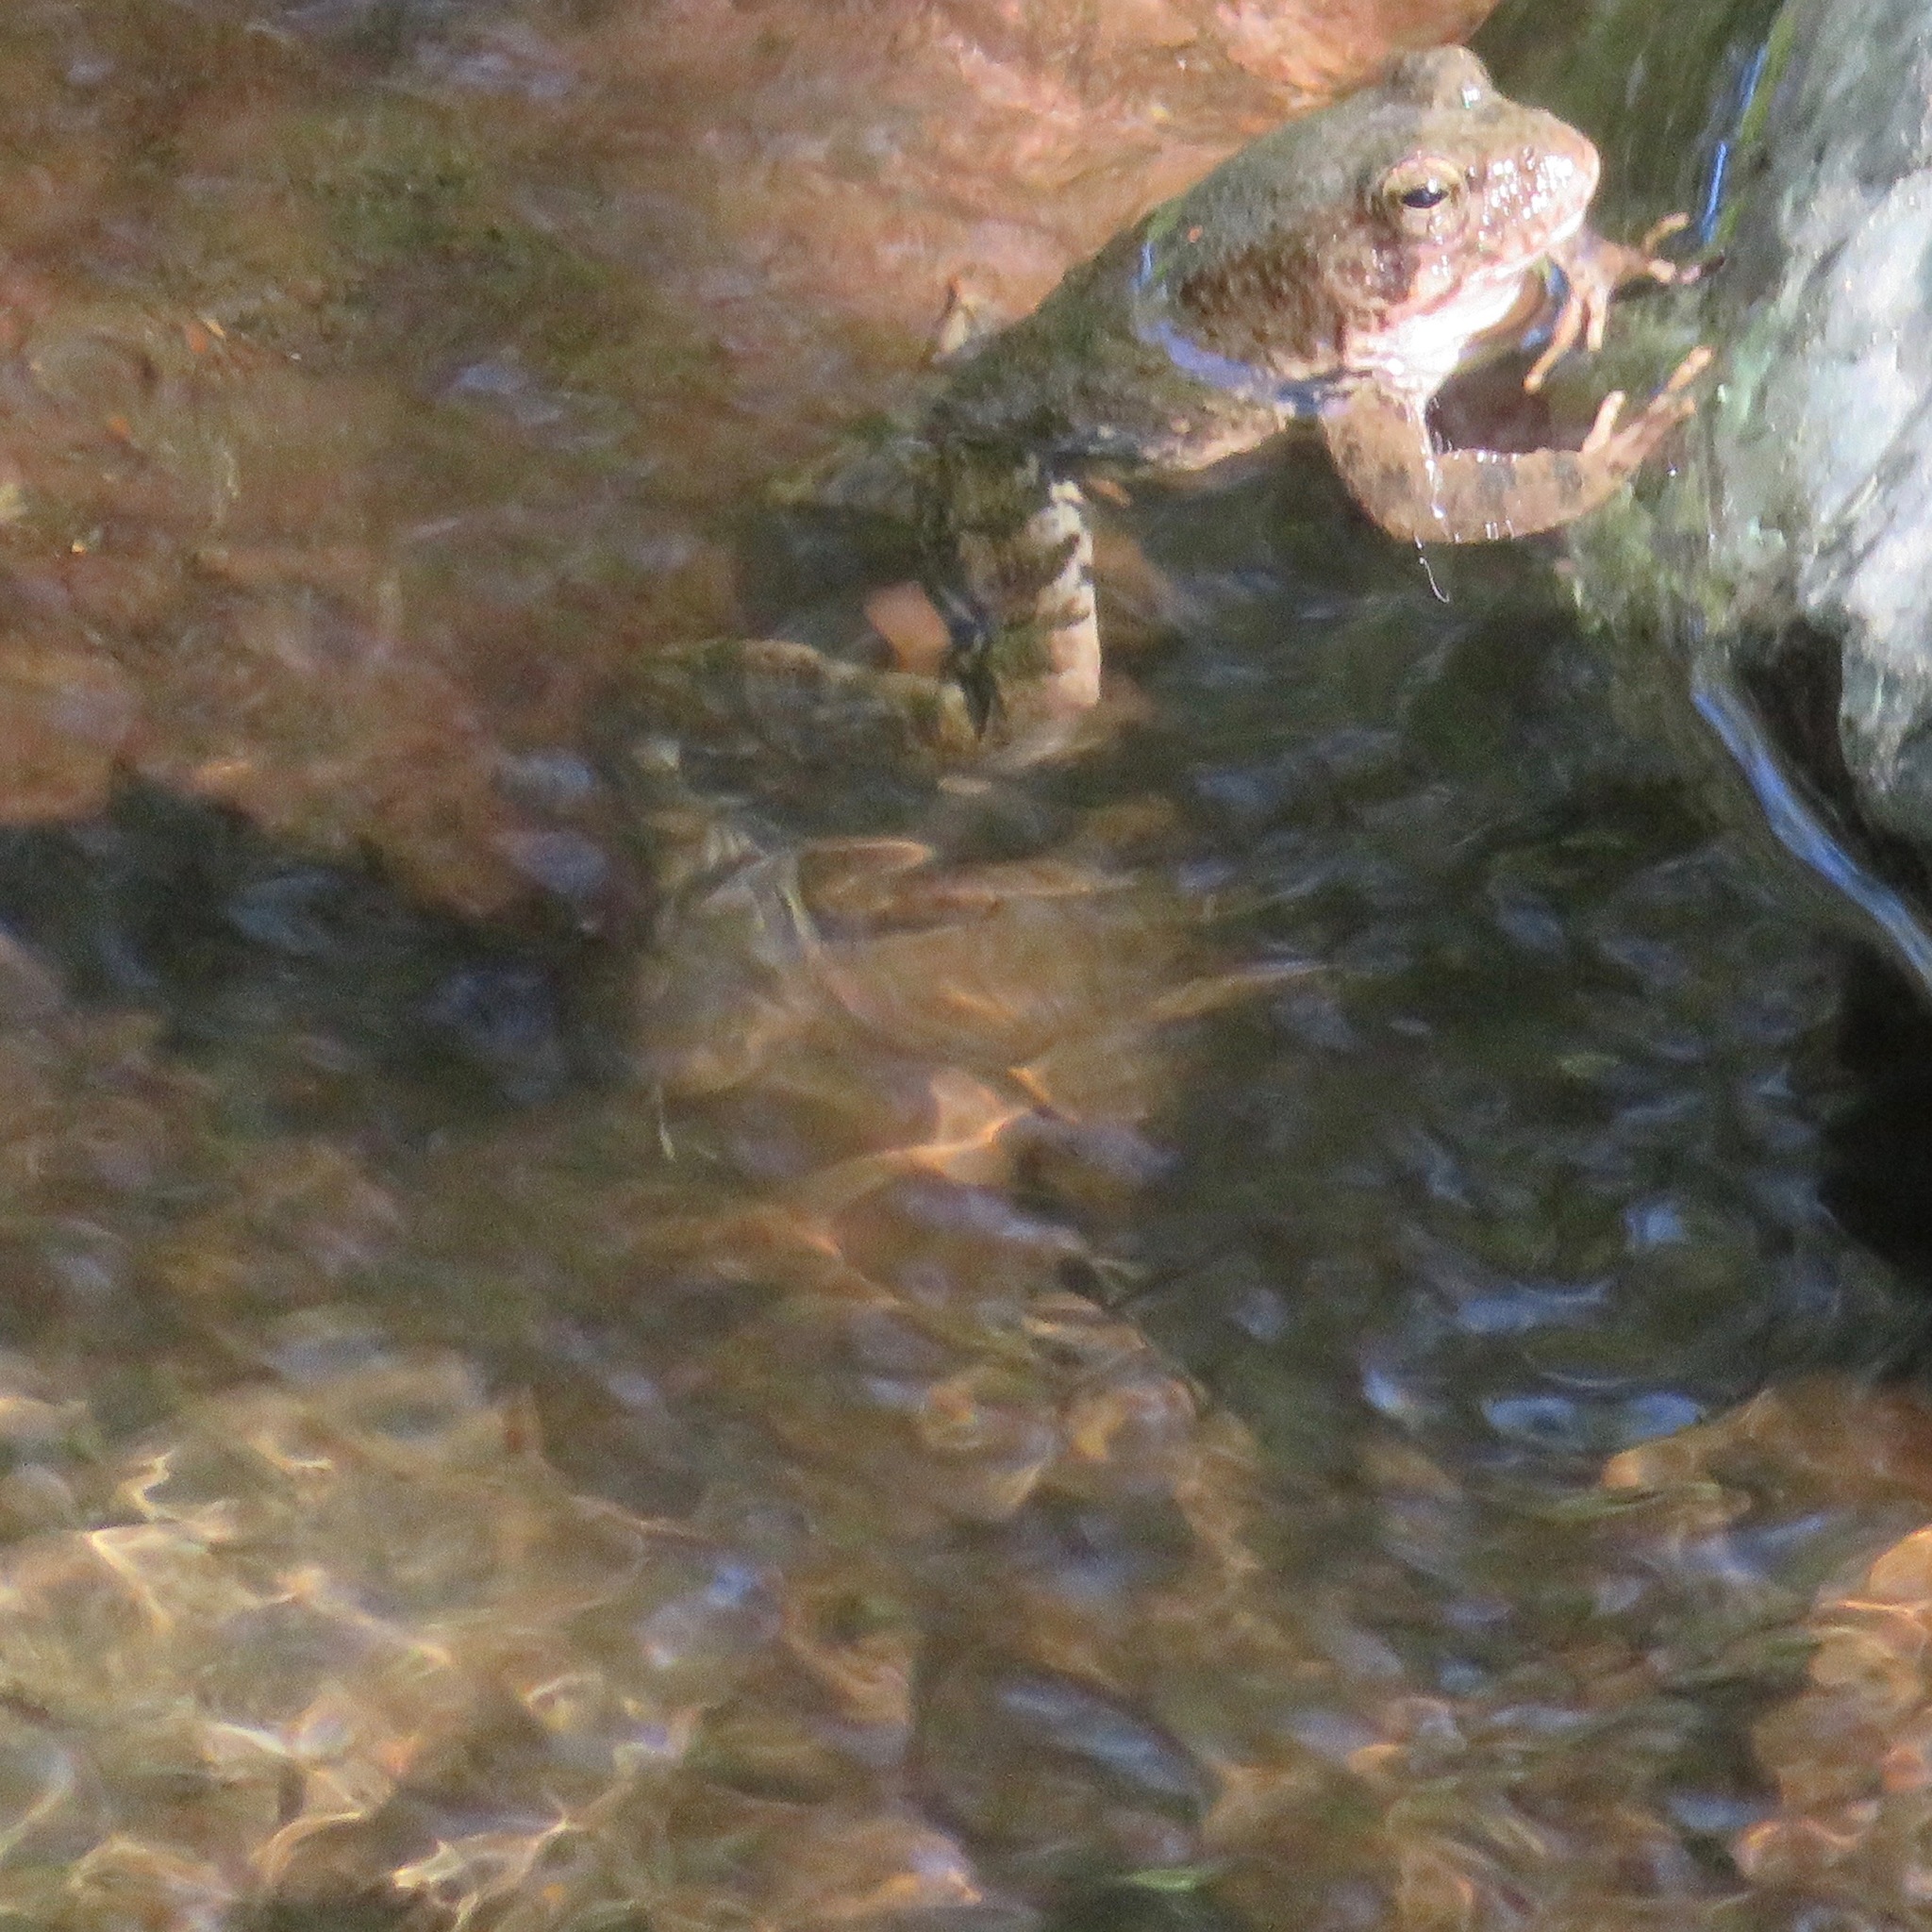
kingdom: Animalia
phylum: Chordata
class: Amphibia
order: Anura
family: Ranidae
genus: Rana
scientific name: Rana boylii
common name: Foothill yellow-legged frog
